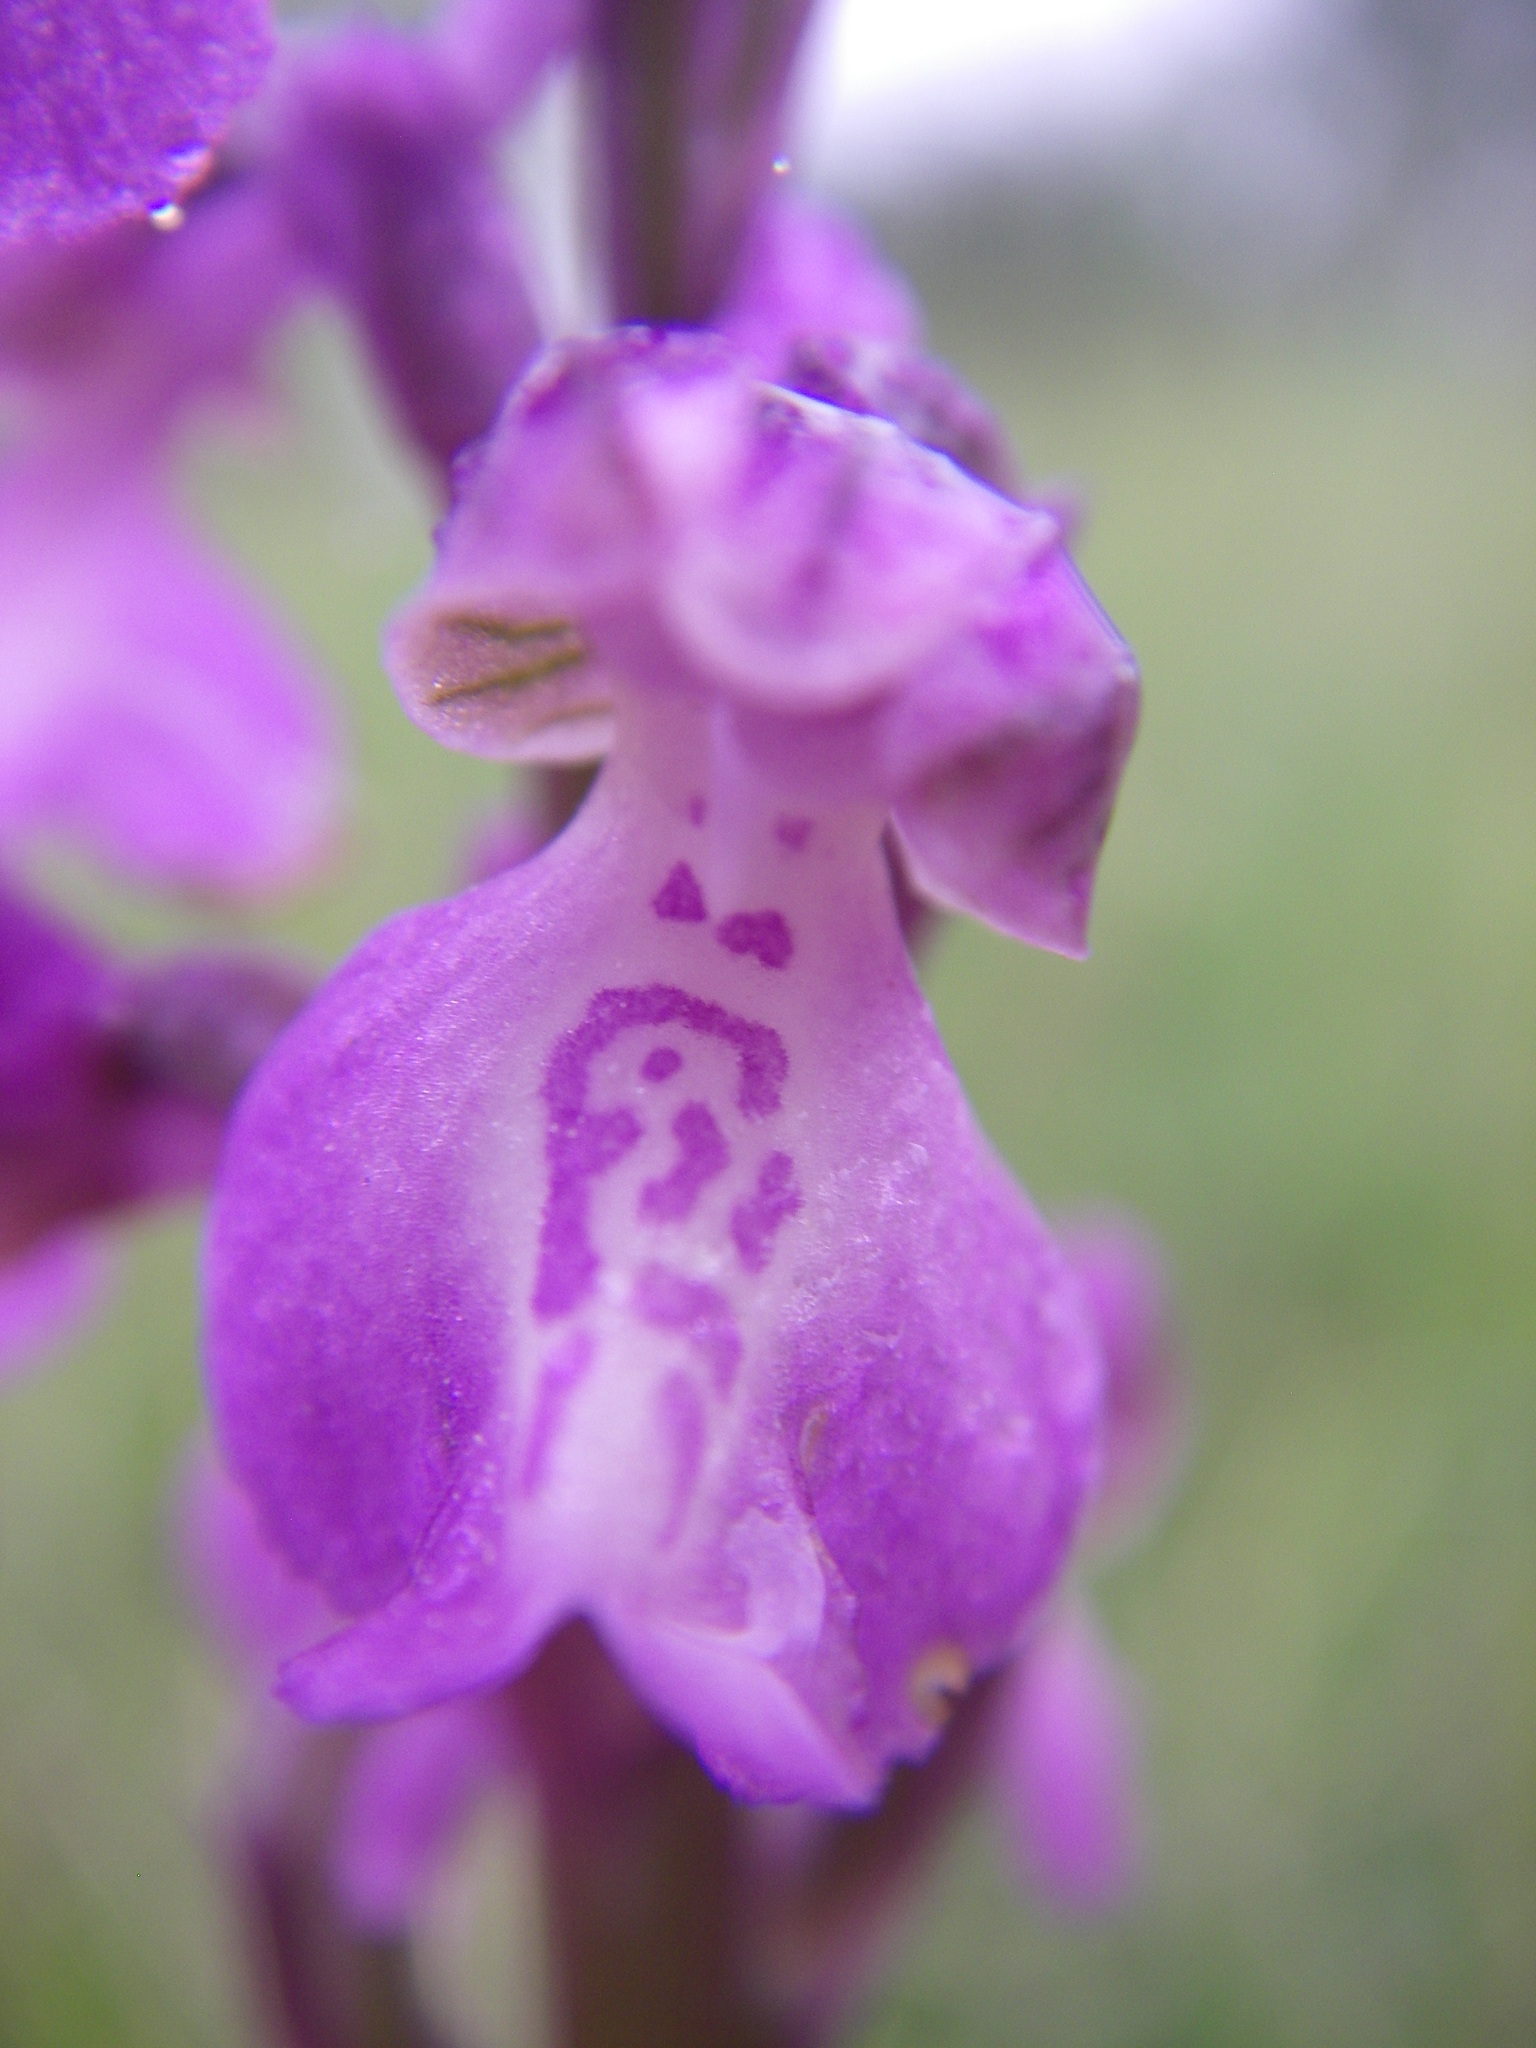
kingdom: Plantae
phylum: Tracheophyta
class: Liliopsida
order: Asparagales
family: Orchidaceae
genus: Anacamptis
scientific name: Anacamptis morio
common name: Green-winged orchid
